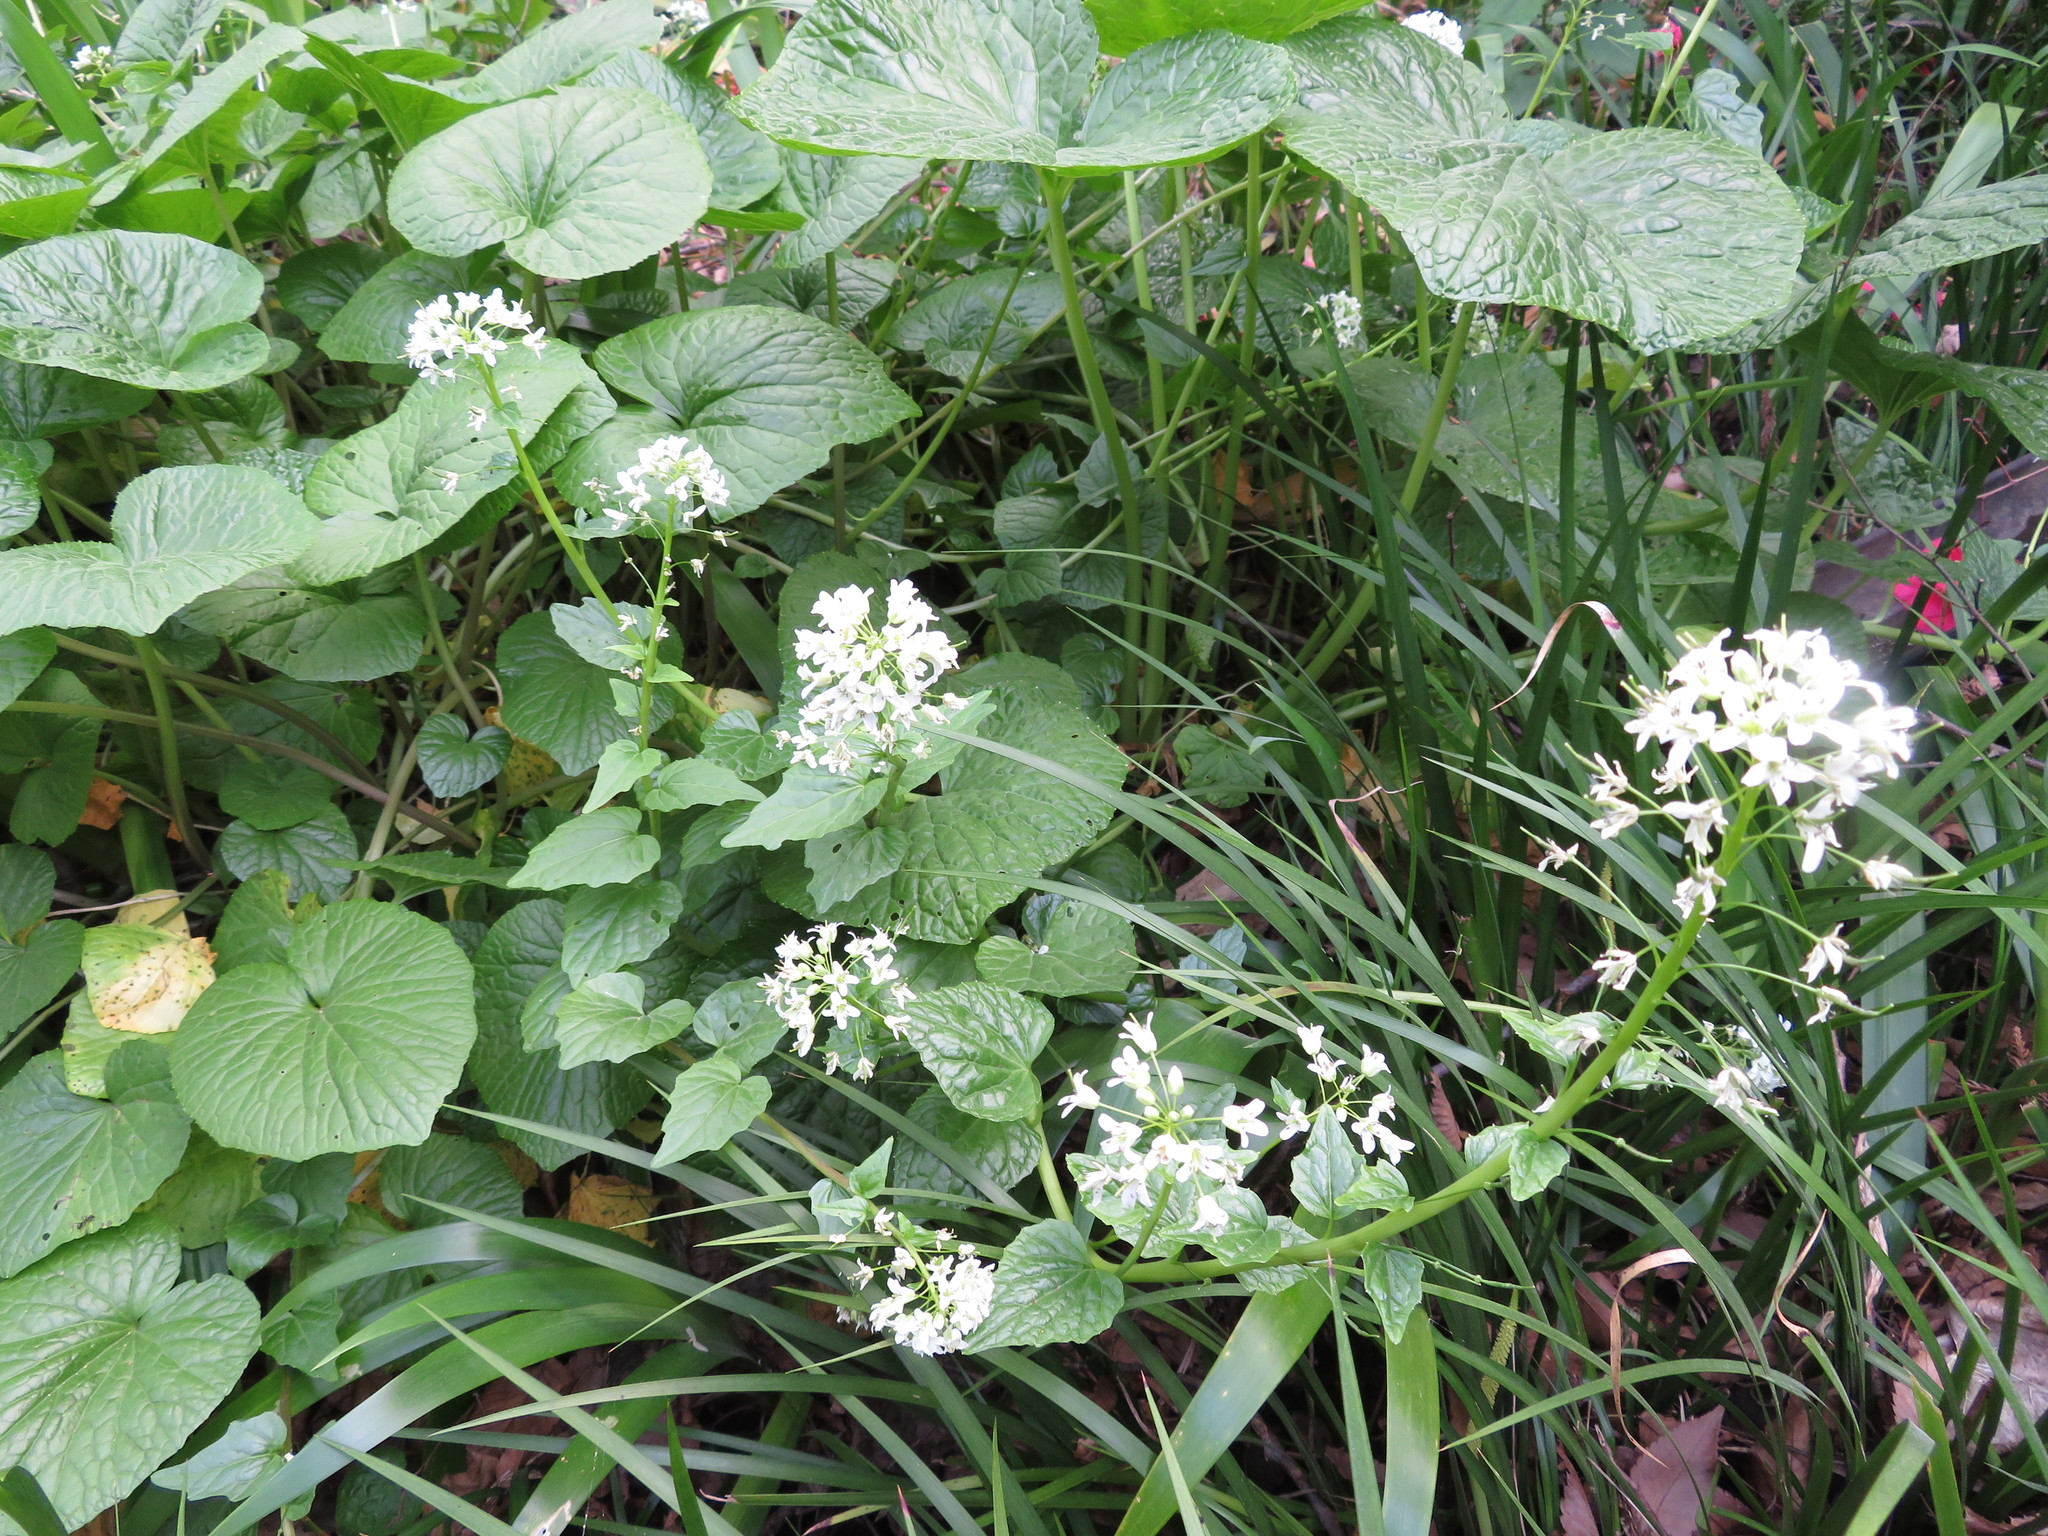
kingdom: Plantae
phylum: Tracheophyta
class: Magnoliopsida
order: Brassicales
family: Brassicaceae
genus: Eutrema
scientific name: Eutrema japonicum
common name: Japanese-horseradish
